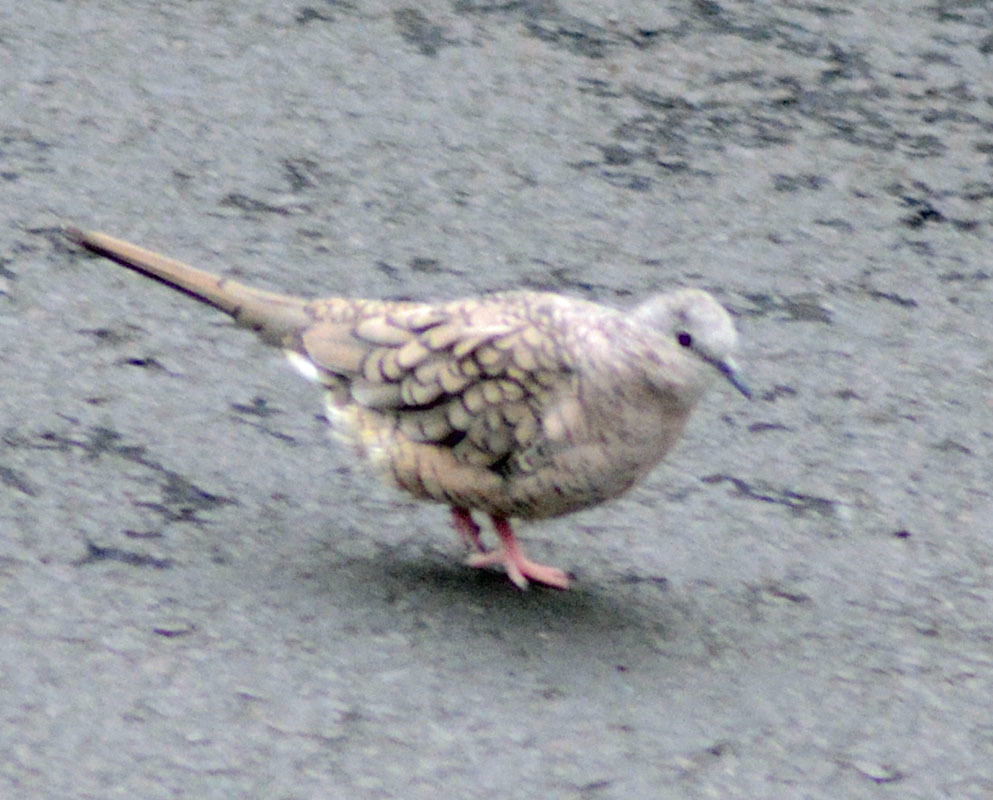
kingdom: Animalia
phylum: Chordata
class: Aves
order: Columbiformes
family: Columbidae
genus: Columbina
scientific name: Columbina inca
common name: Inca dove
